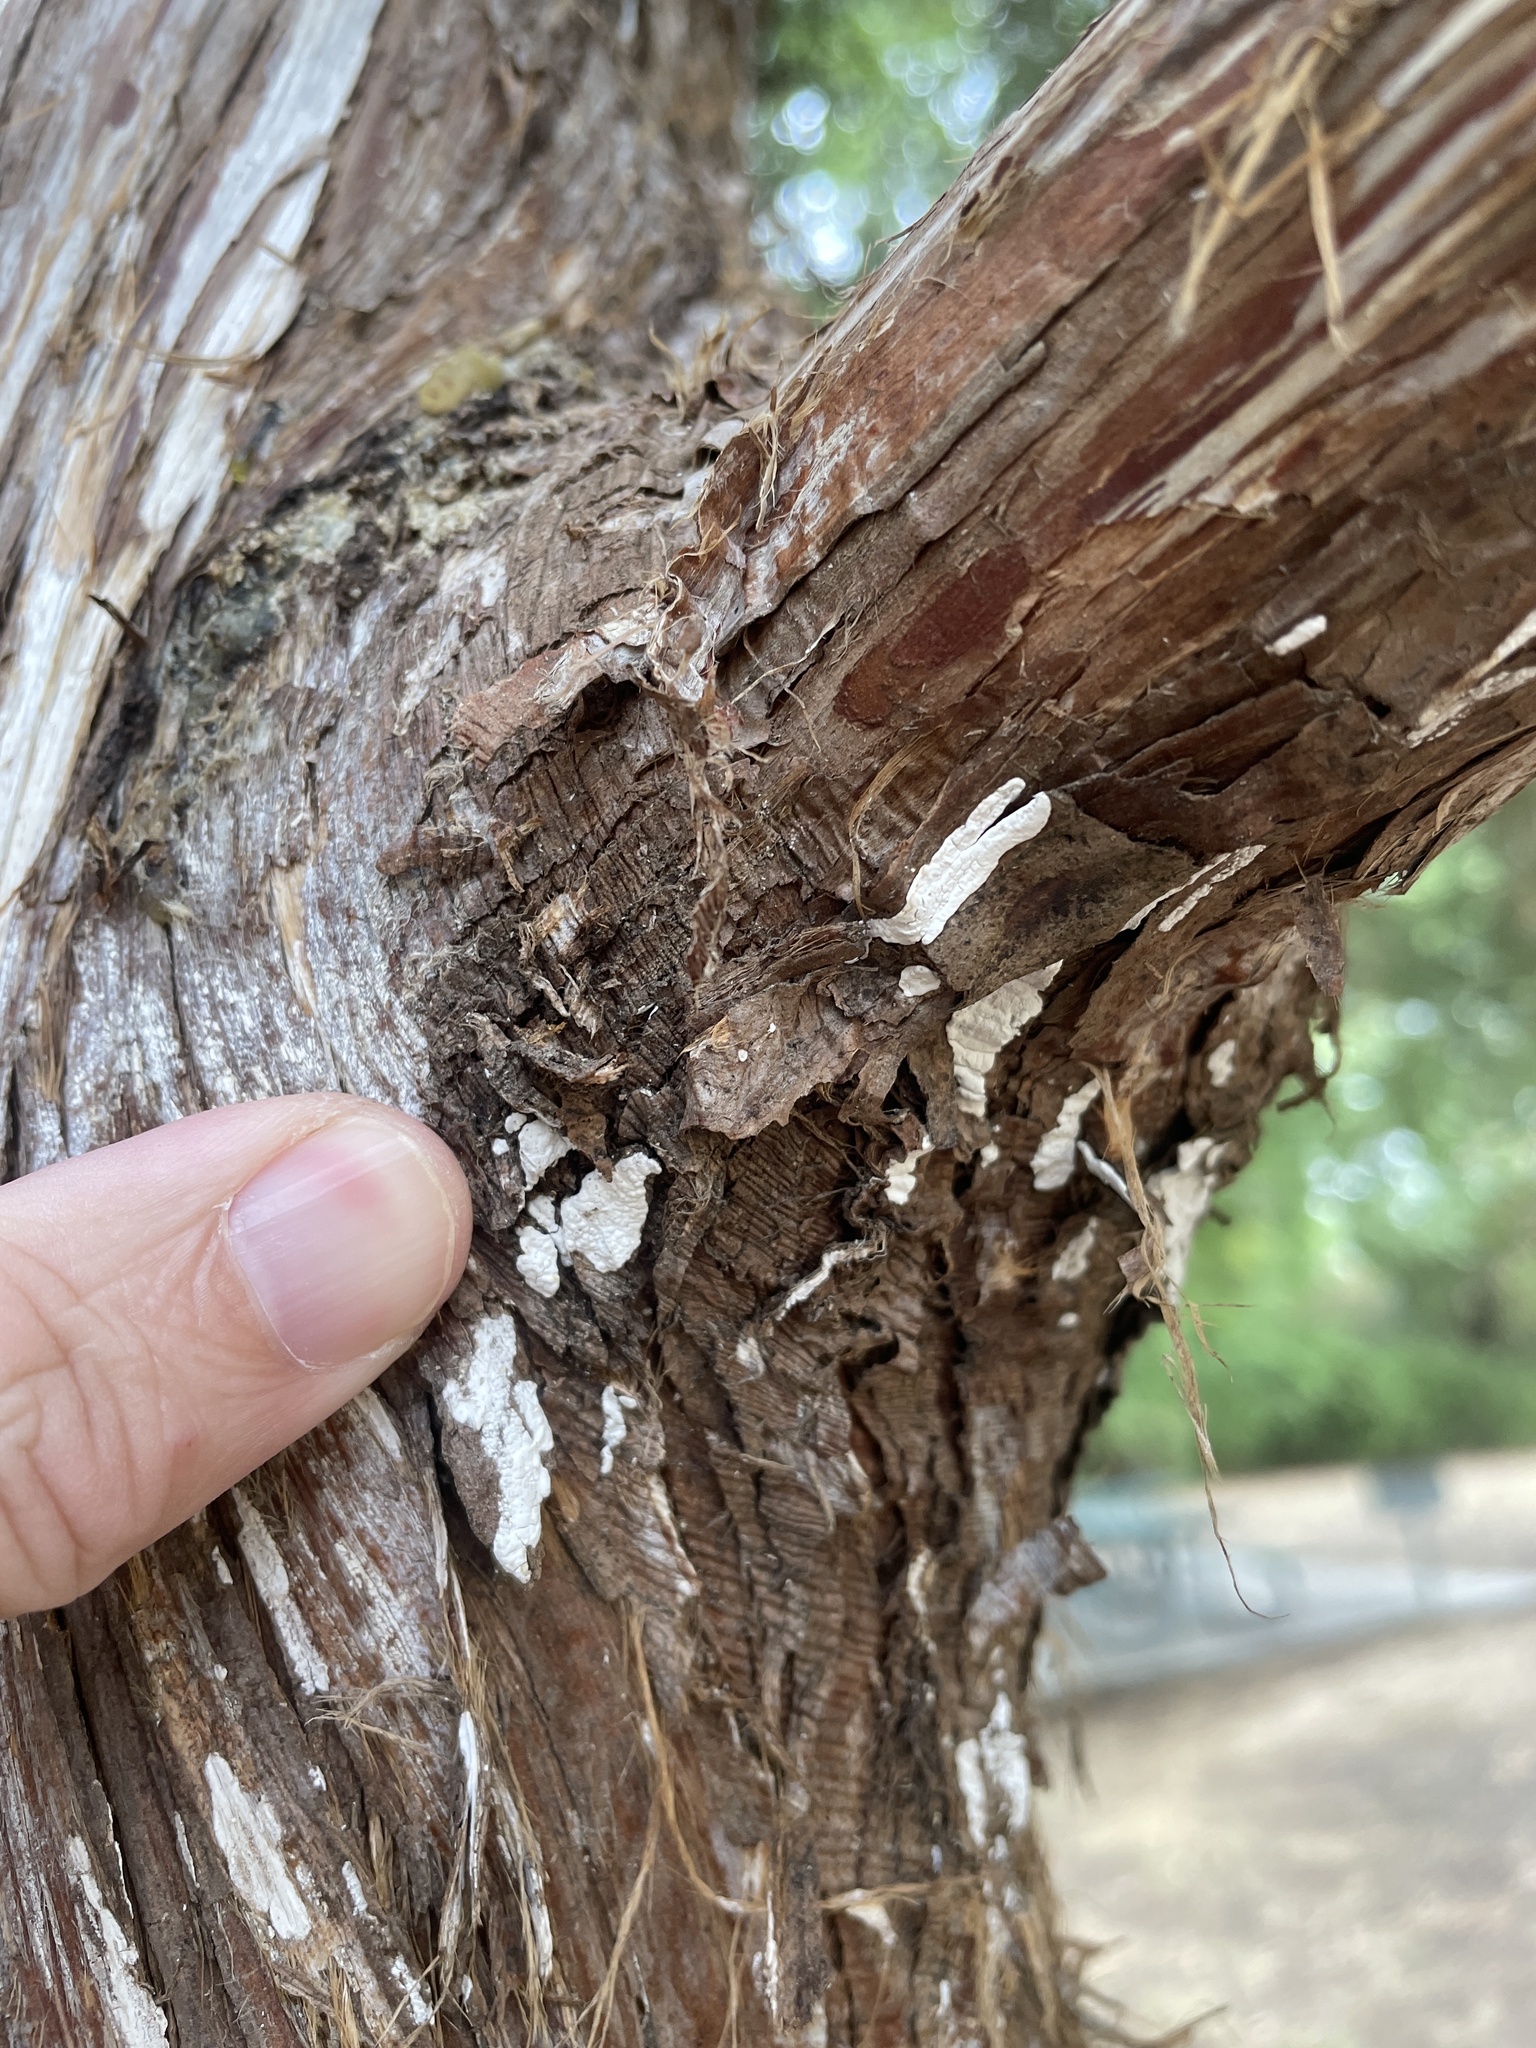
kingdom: Fungi
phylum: Basidiomycota
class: Agaricomycetes
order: Agaricales
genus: Dendrothele
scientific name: Dendrothele nivosa
